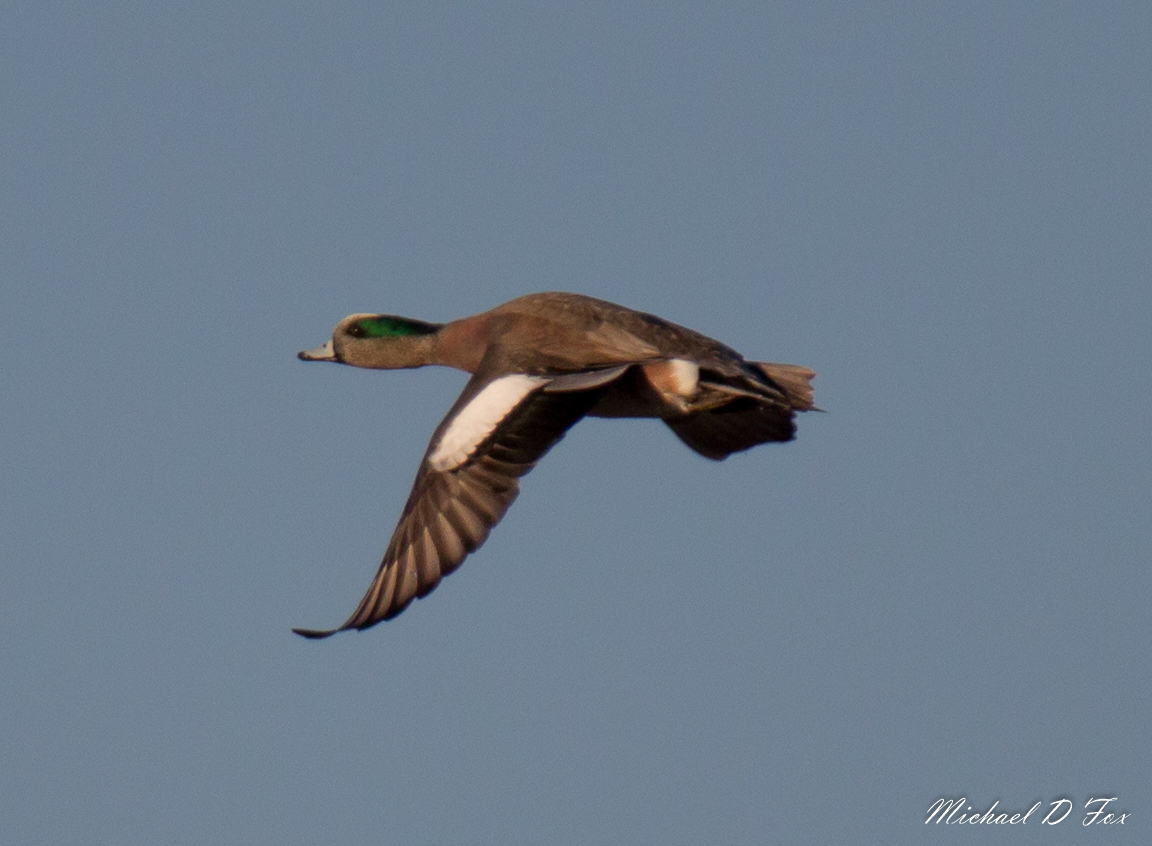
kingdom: Animalia
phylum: Chordata
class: Aves
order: Anseriformes
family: Anatidae
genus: Mareca
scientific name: Mareca americana
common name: American wigeon
